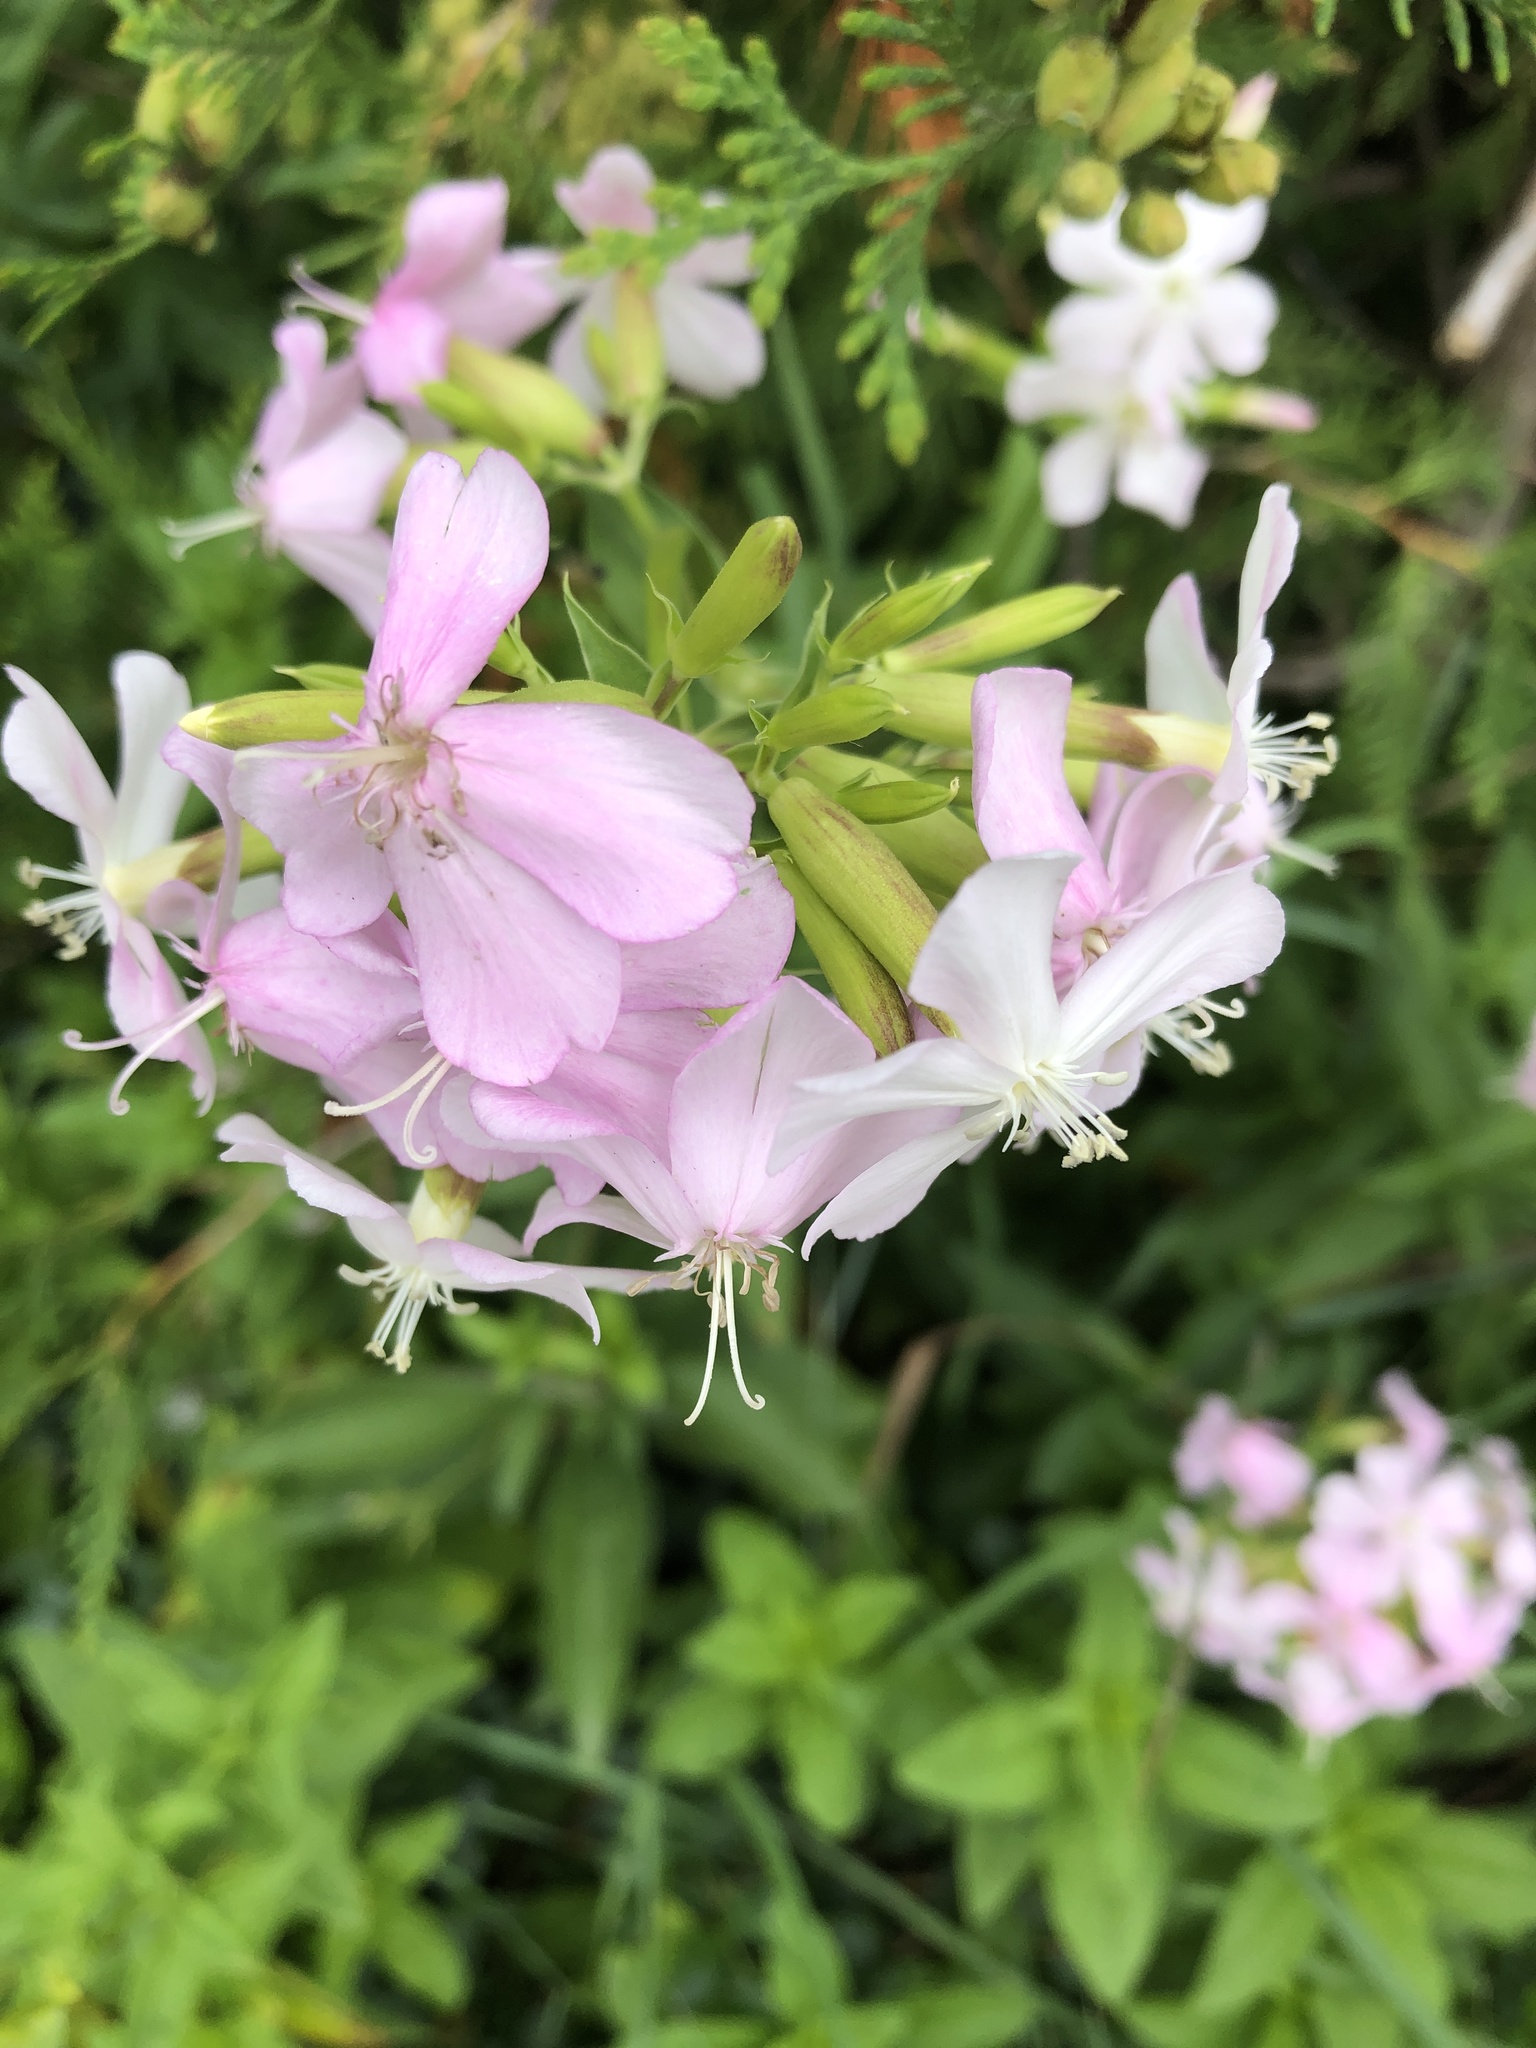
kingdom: Plantae
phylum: Tracheophyta
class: Magnoliopsida
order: Caryophyllales
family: Caryophyllaceae
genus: Saponaria
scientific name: Saponaria officinalis
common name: Soapwort
